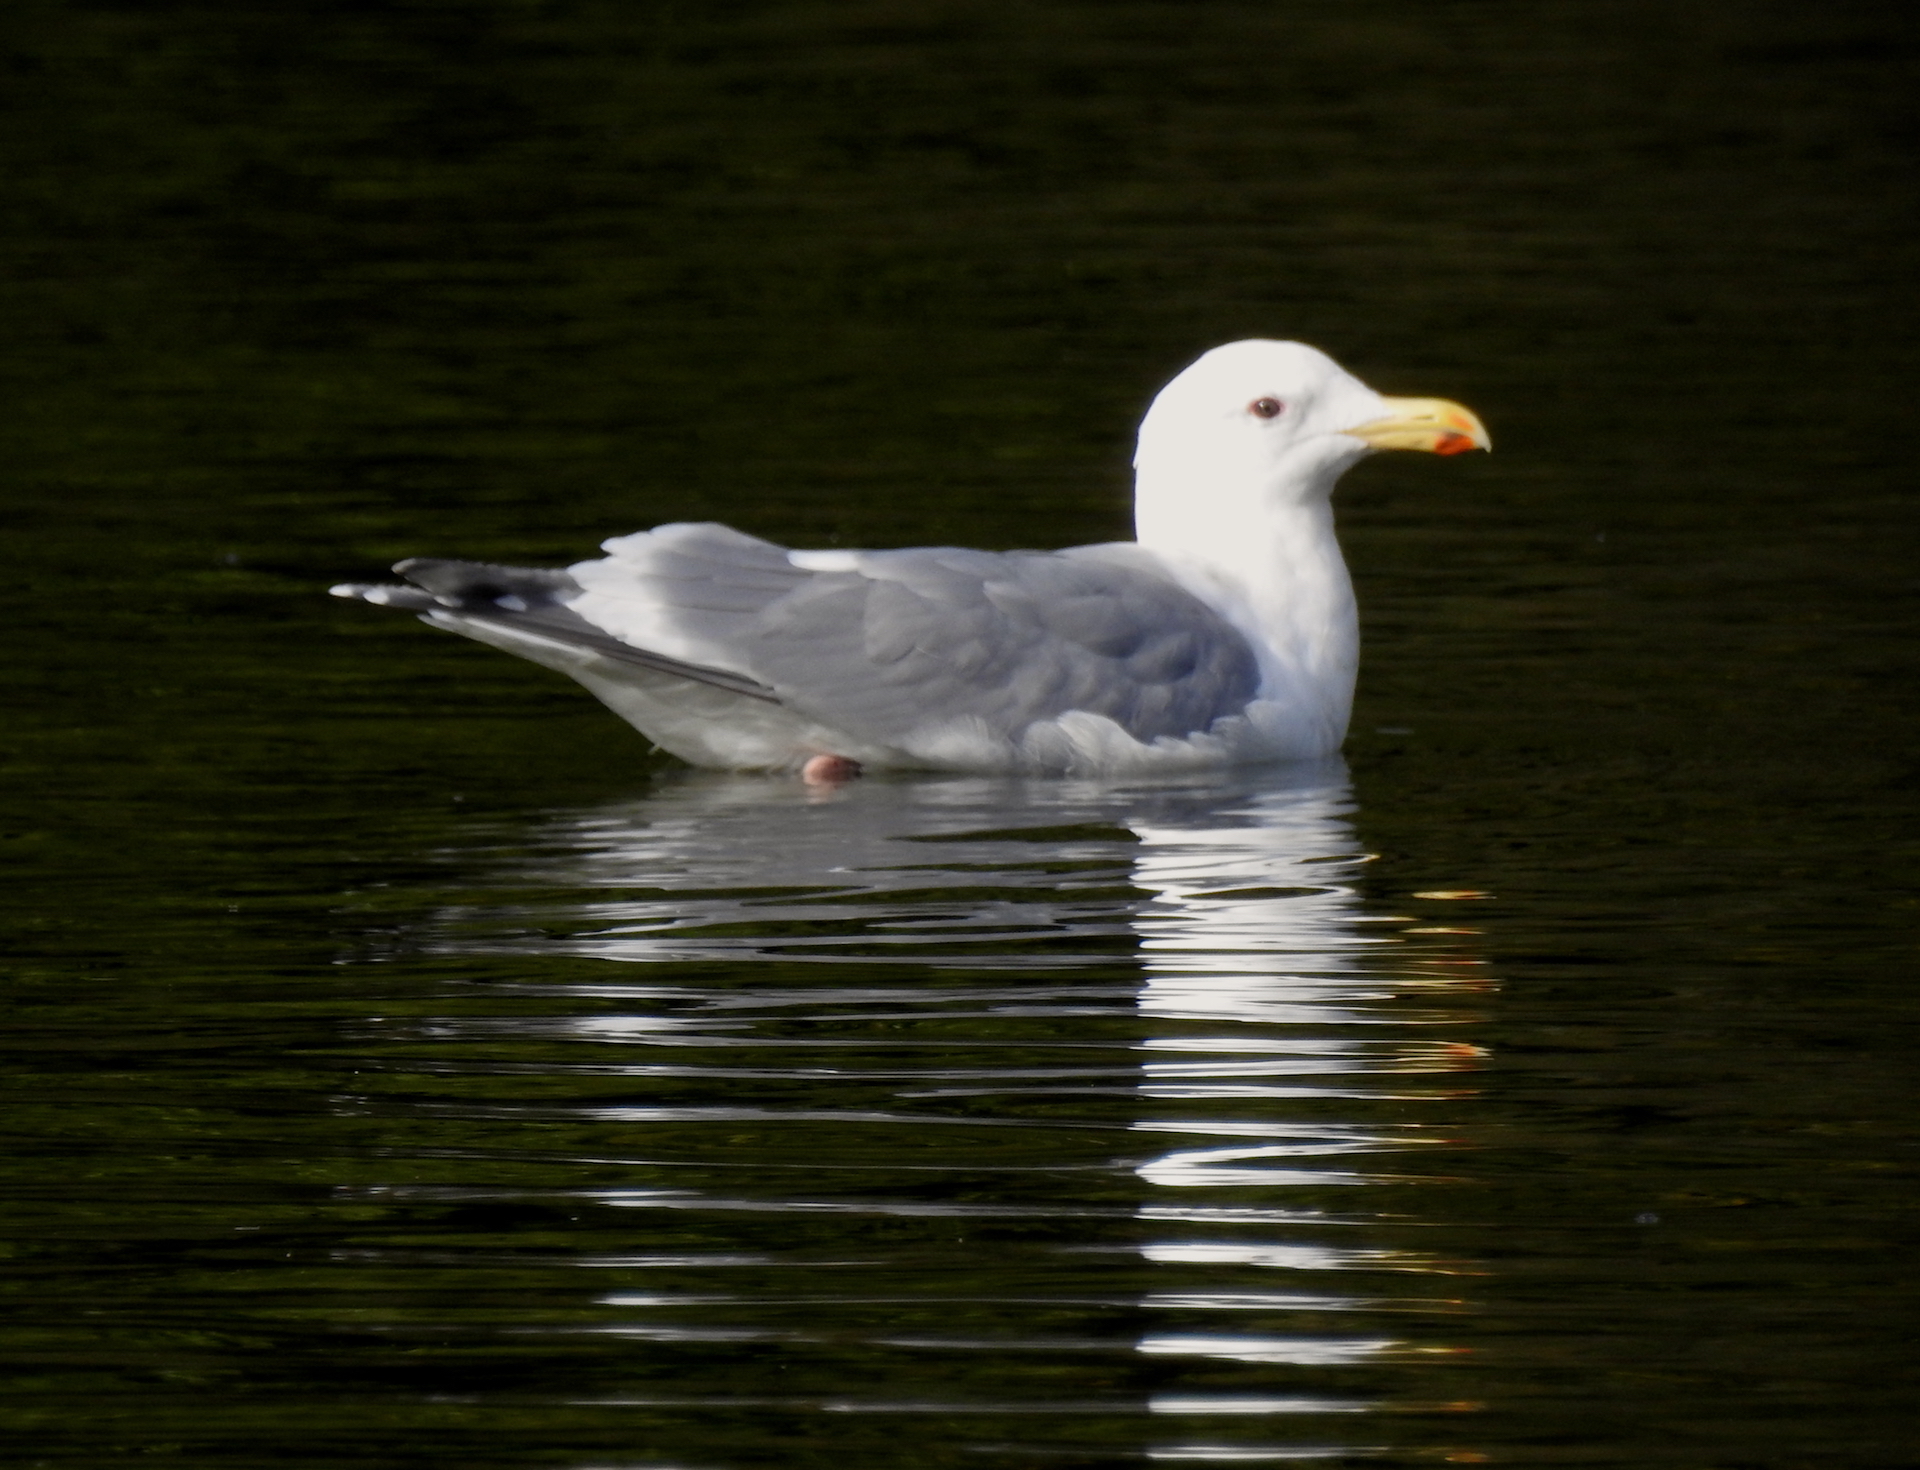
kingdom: Animalia
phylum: Chordata
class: Aves
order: Charadriiformes
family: Laridae
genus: Larus
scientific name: Larus
